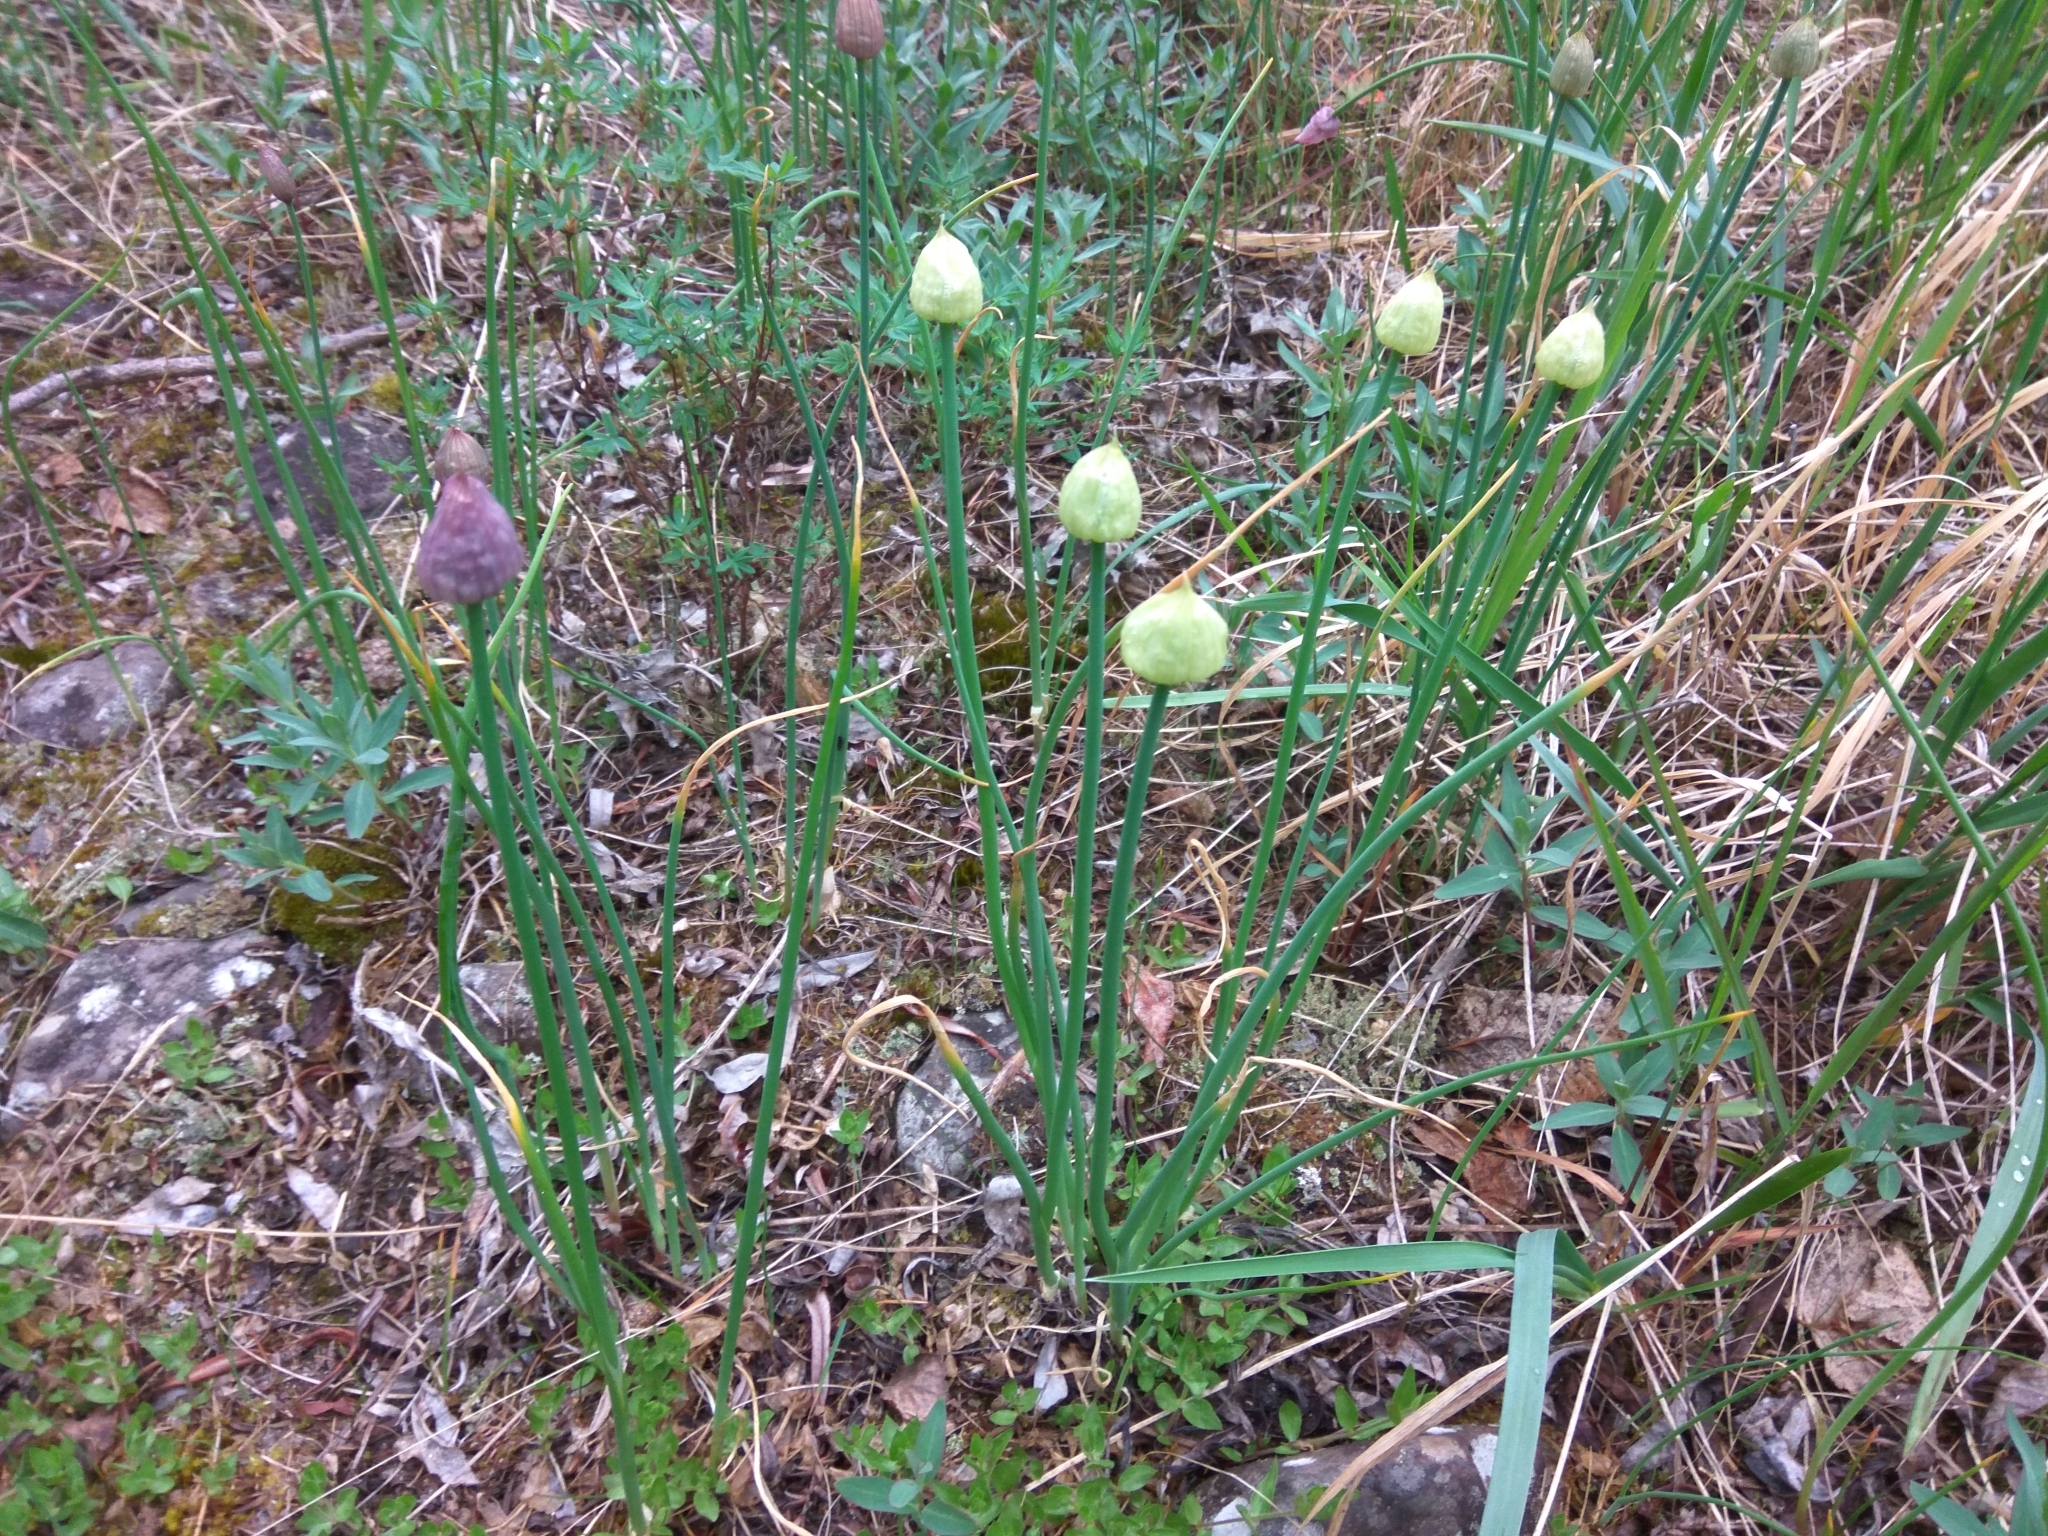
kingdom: Plantae
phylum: Tracheophyta
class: Liliopsida
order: Asparagales
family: Amaryllidaceae
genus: Allium
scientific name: Allium schoenoprasum
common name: Chives
